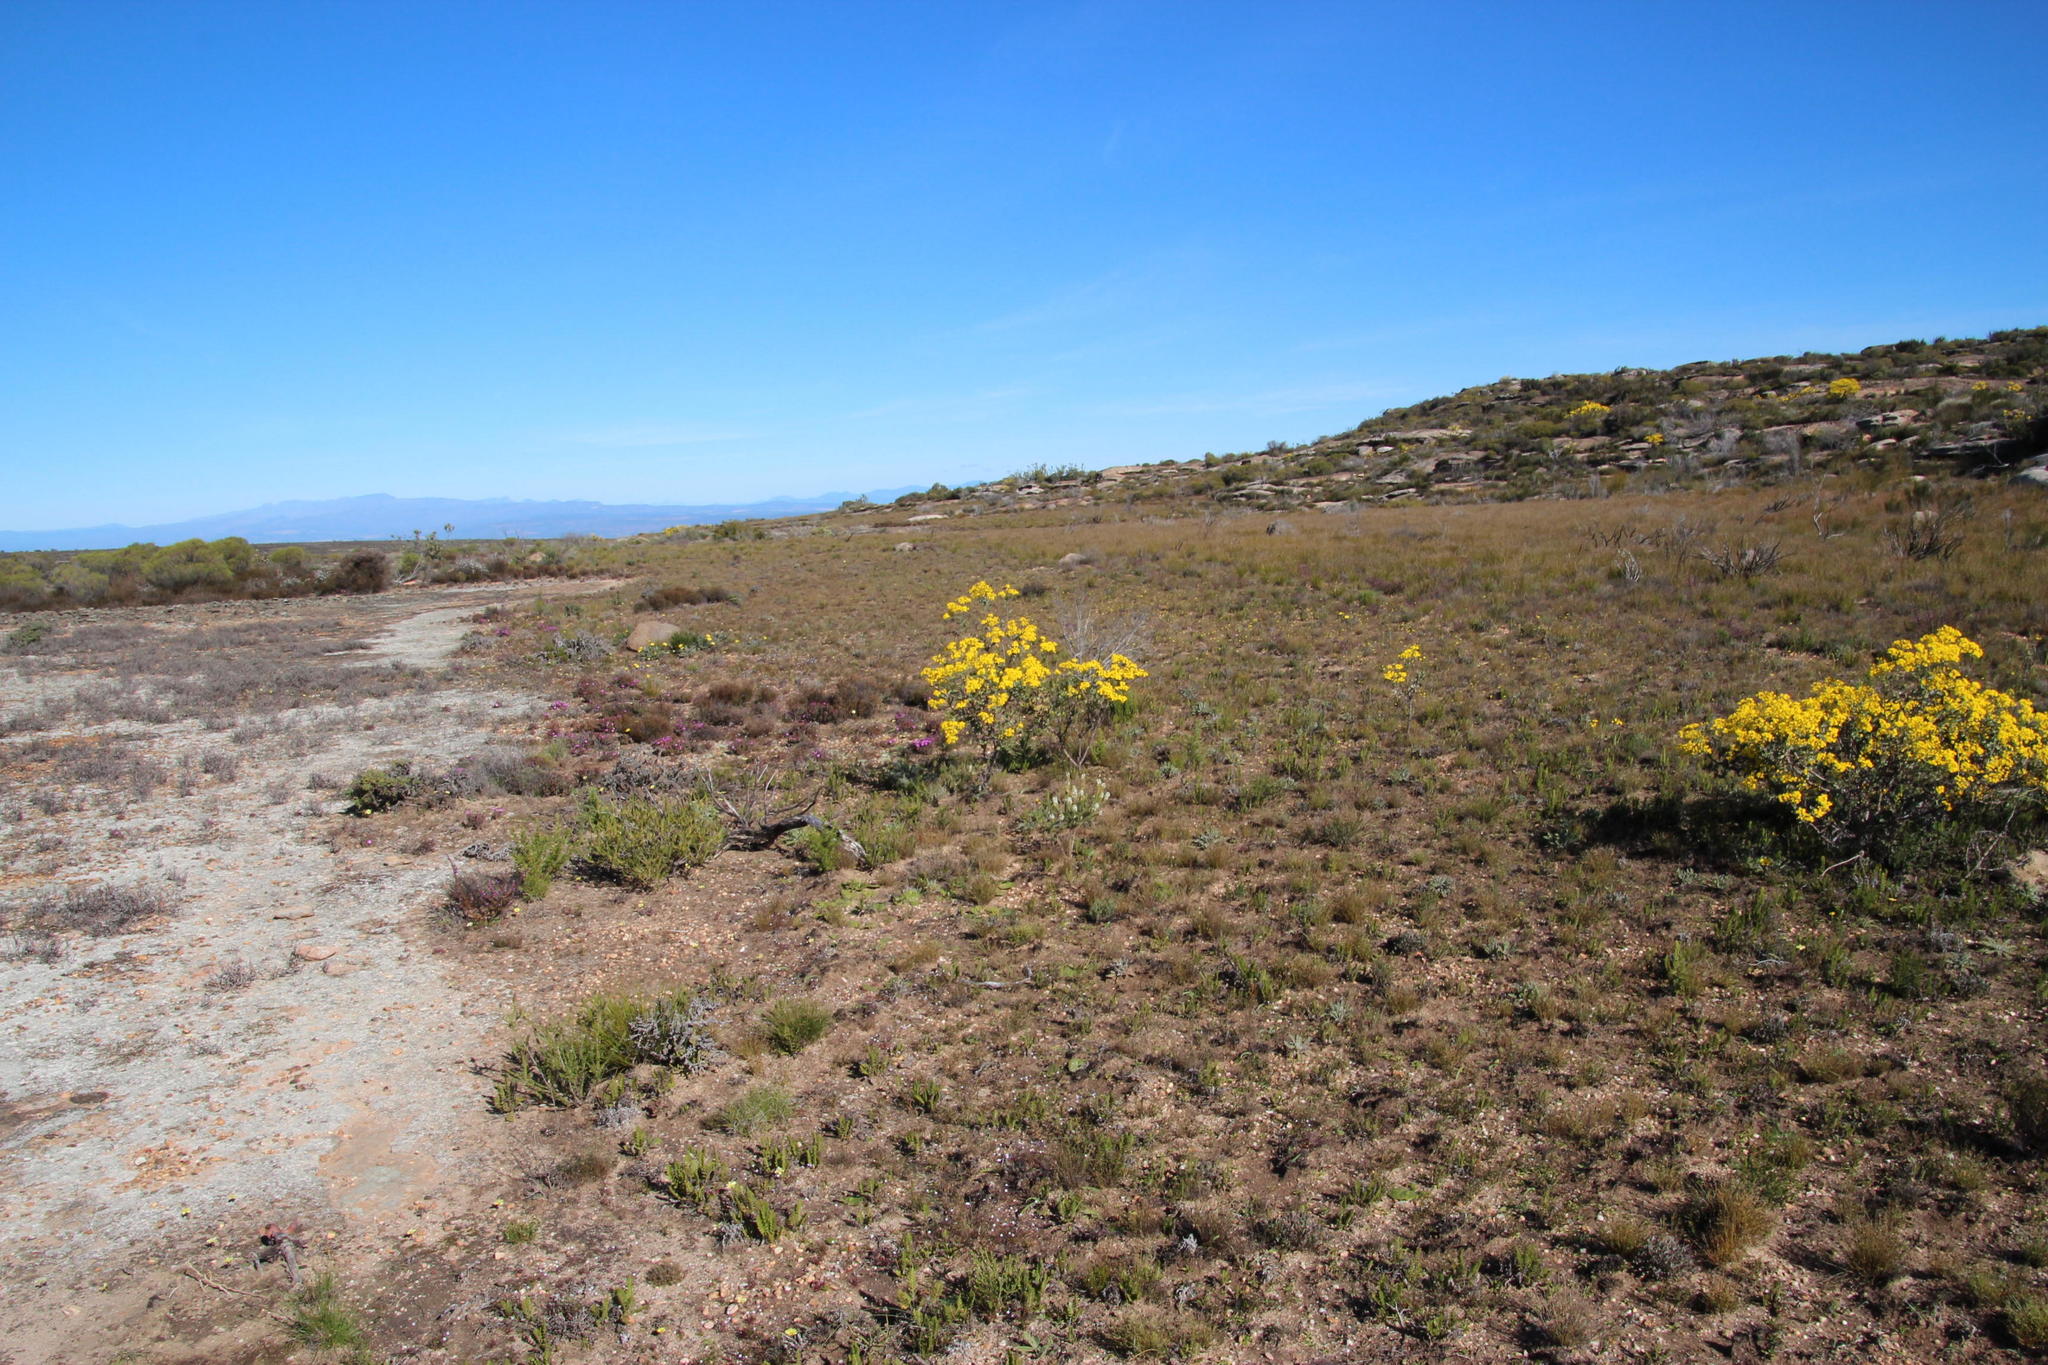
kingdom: Plantae
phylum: Tracheophyta
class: Magnoliopsida
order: Lamiales
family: Scrophulariaceae
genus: Microdon
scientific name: Microdon polygaloides
